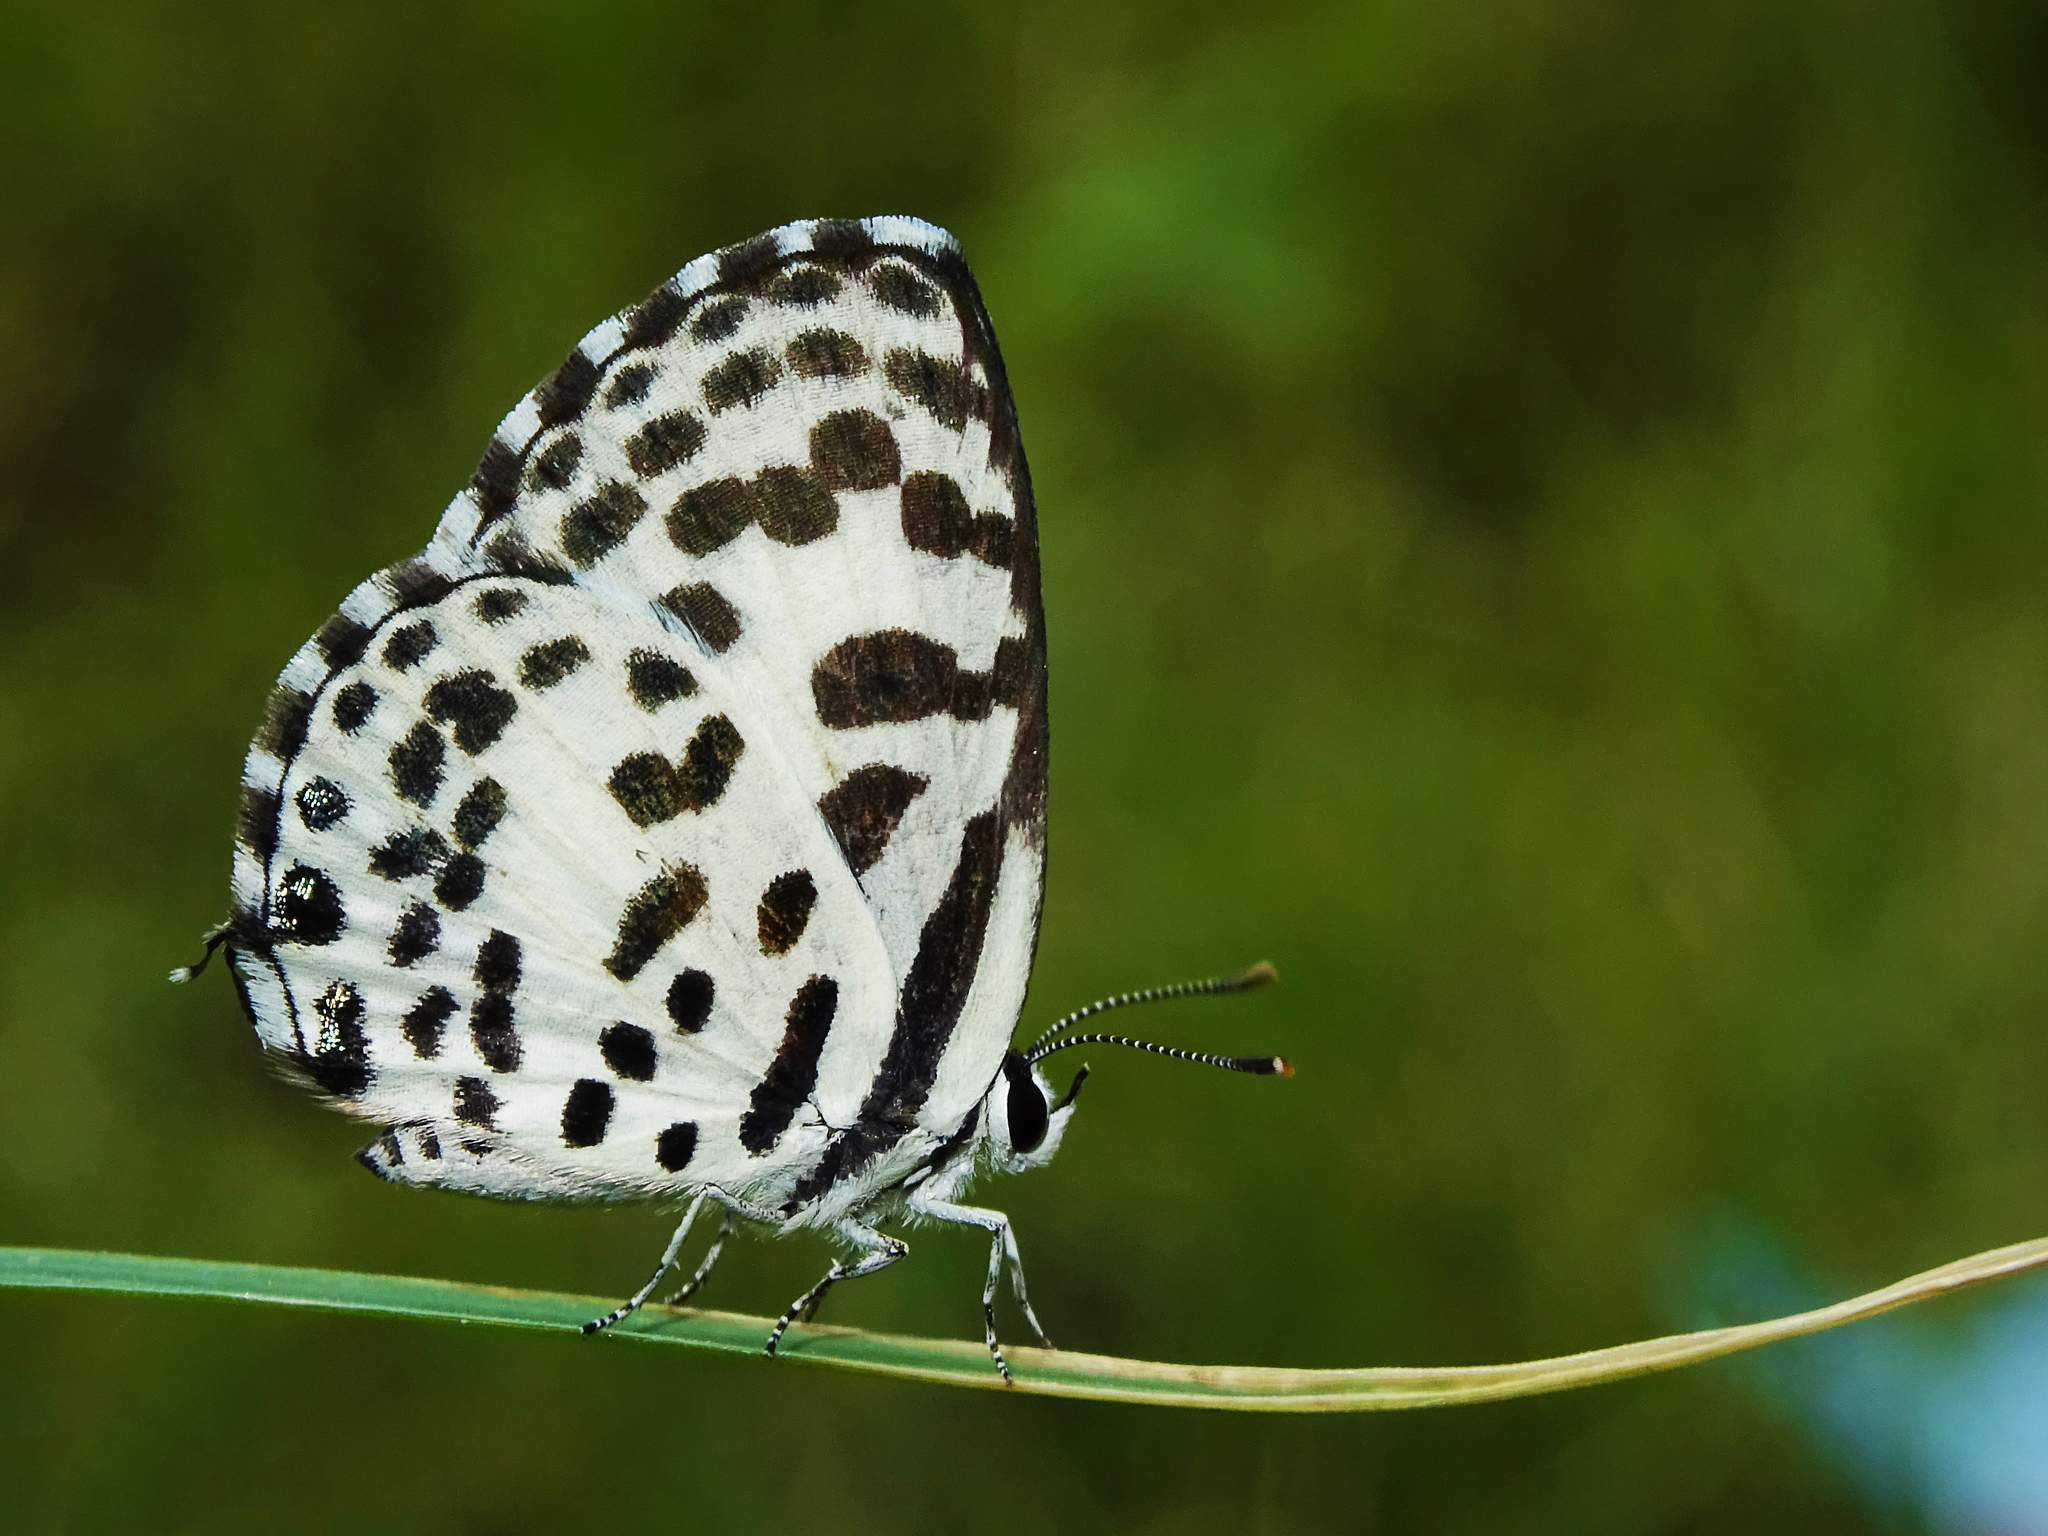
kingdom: Animalia
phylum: Arthropoda
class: Insecta
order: Lepidoptera
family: Lycaenidae
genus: Castalius
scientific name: Castalius rosimon
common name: Common pierrot
